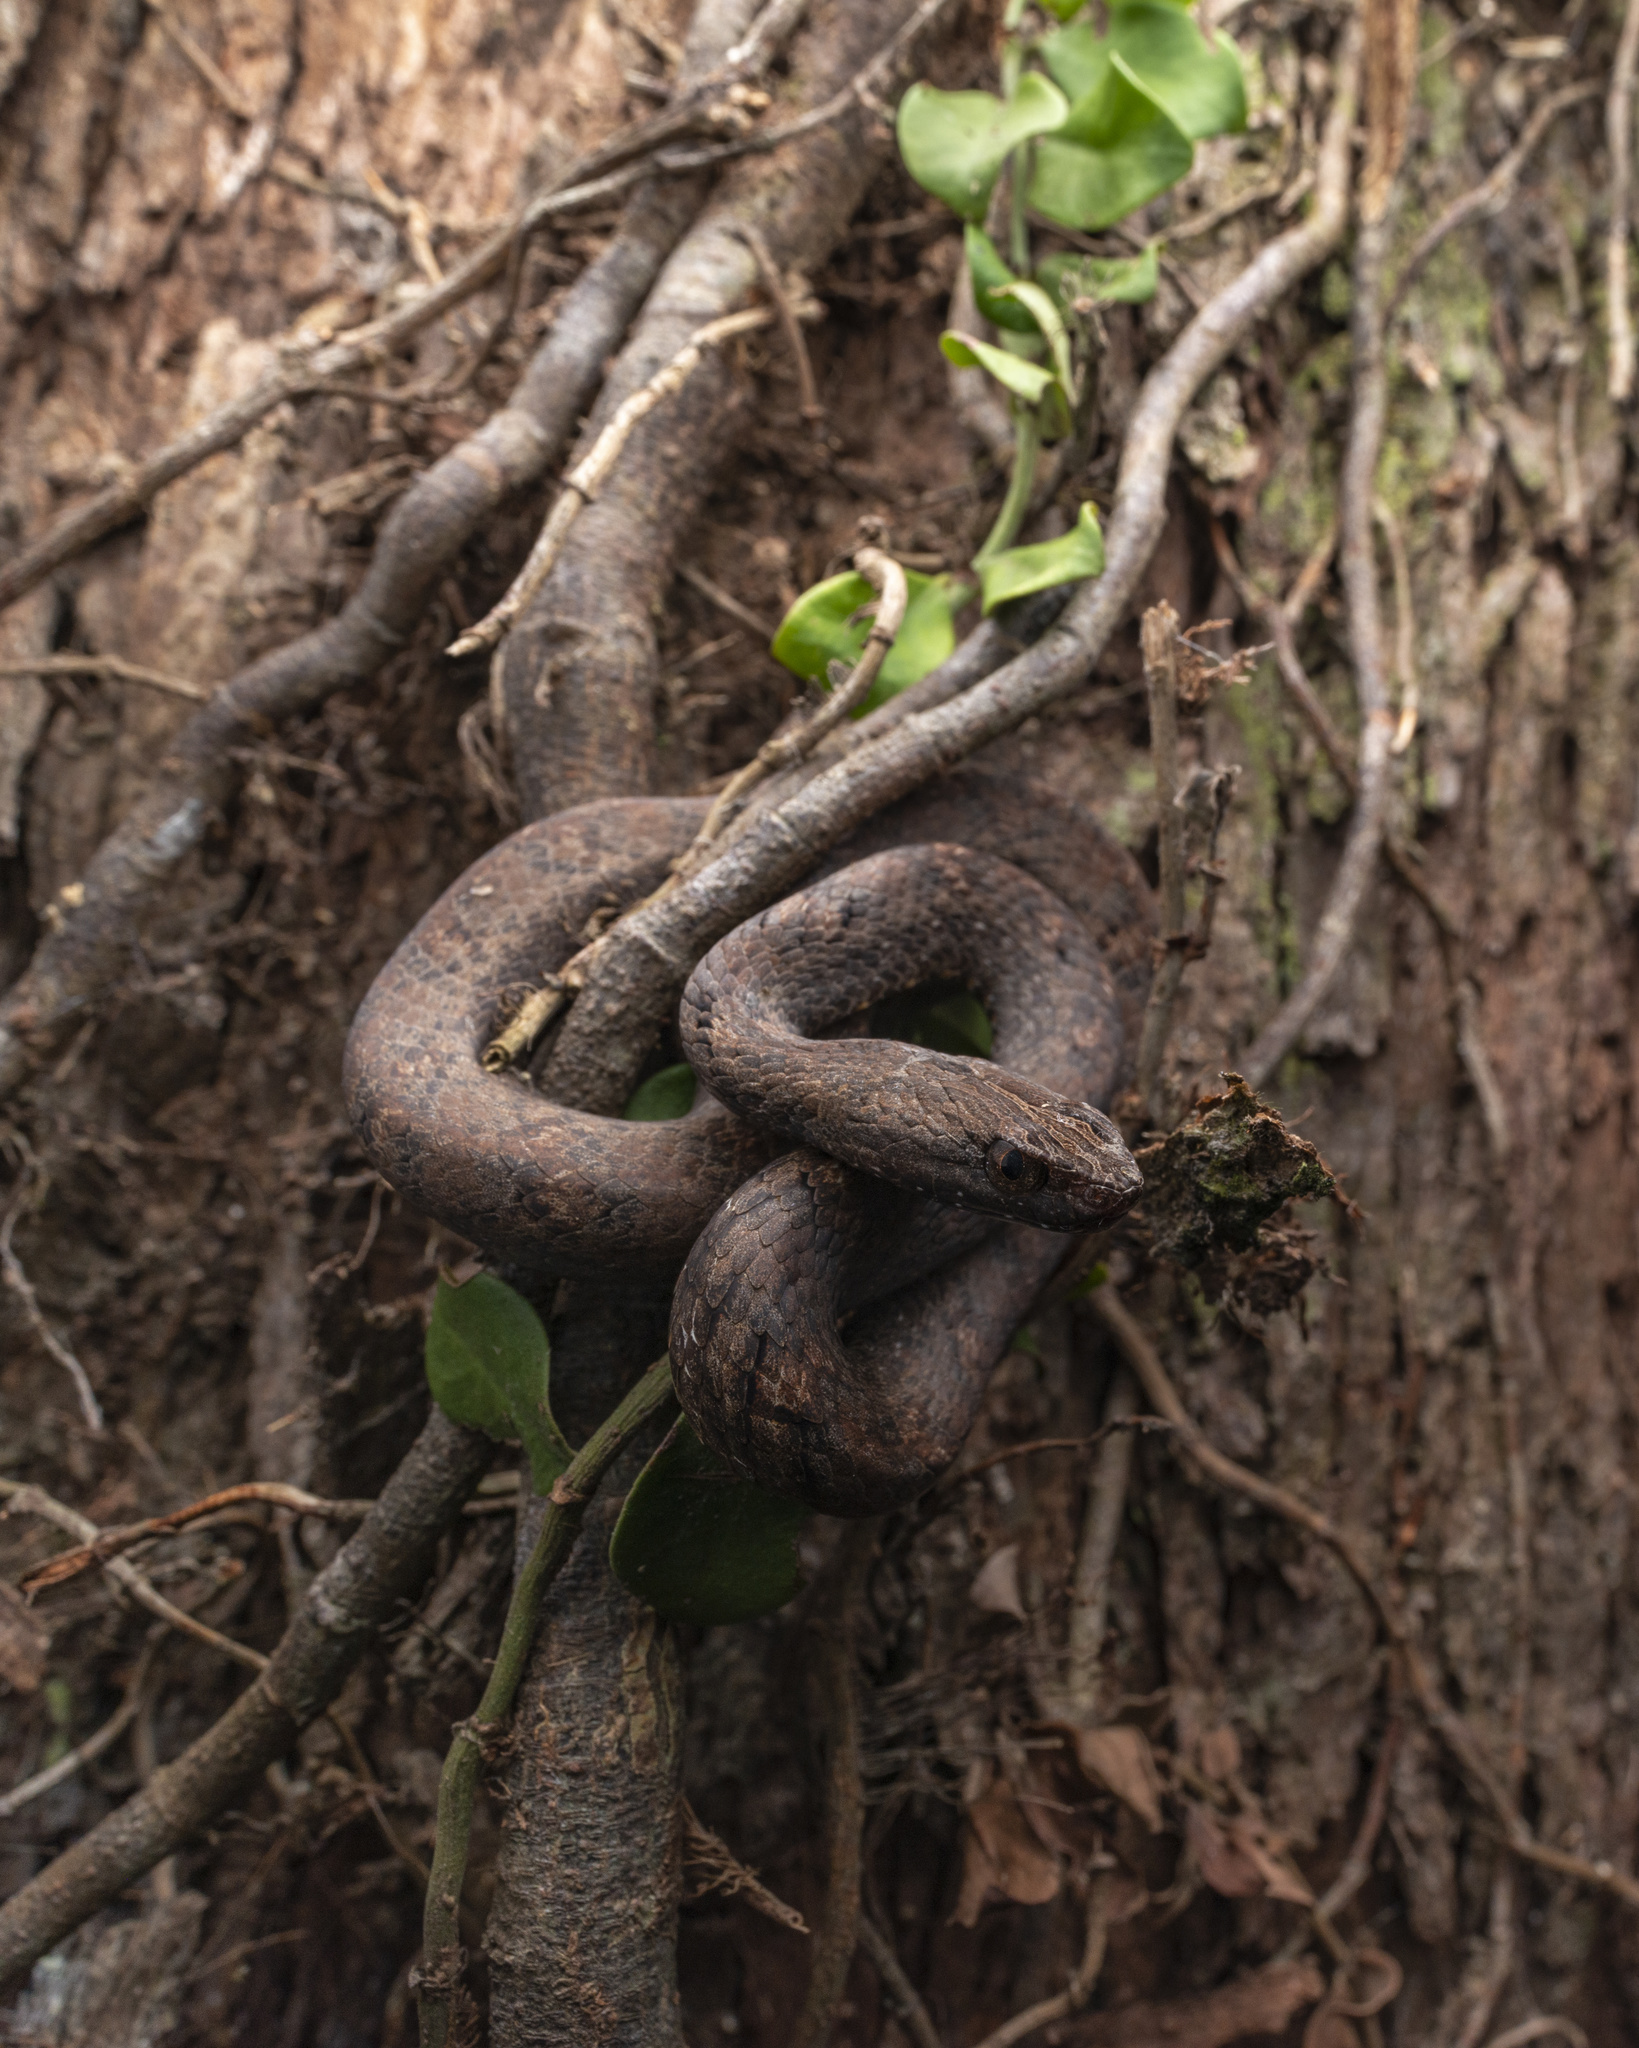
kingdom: Animalia
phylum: Chordata
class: Squamata
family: Pseudaspididae
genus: Psammodynastes
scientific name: Psammodynastes pulverulentus
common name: Common mock viper
